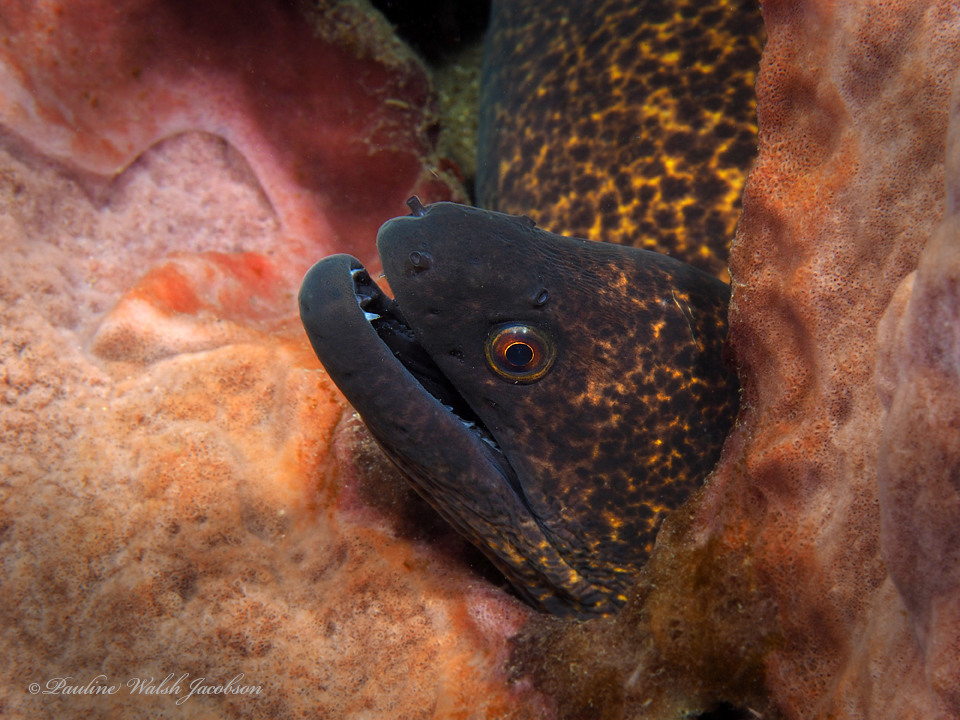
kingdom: Animalia
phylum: Chordata
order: Anguilliformes
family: Muraenidae
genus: Gymnothorax
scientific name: Gymnothorax flavimarginatus
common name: Yellow-edged moray
